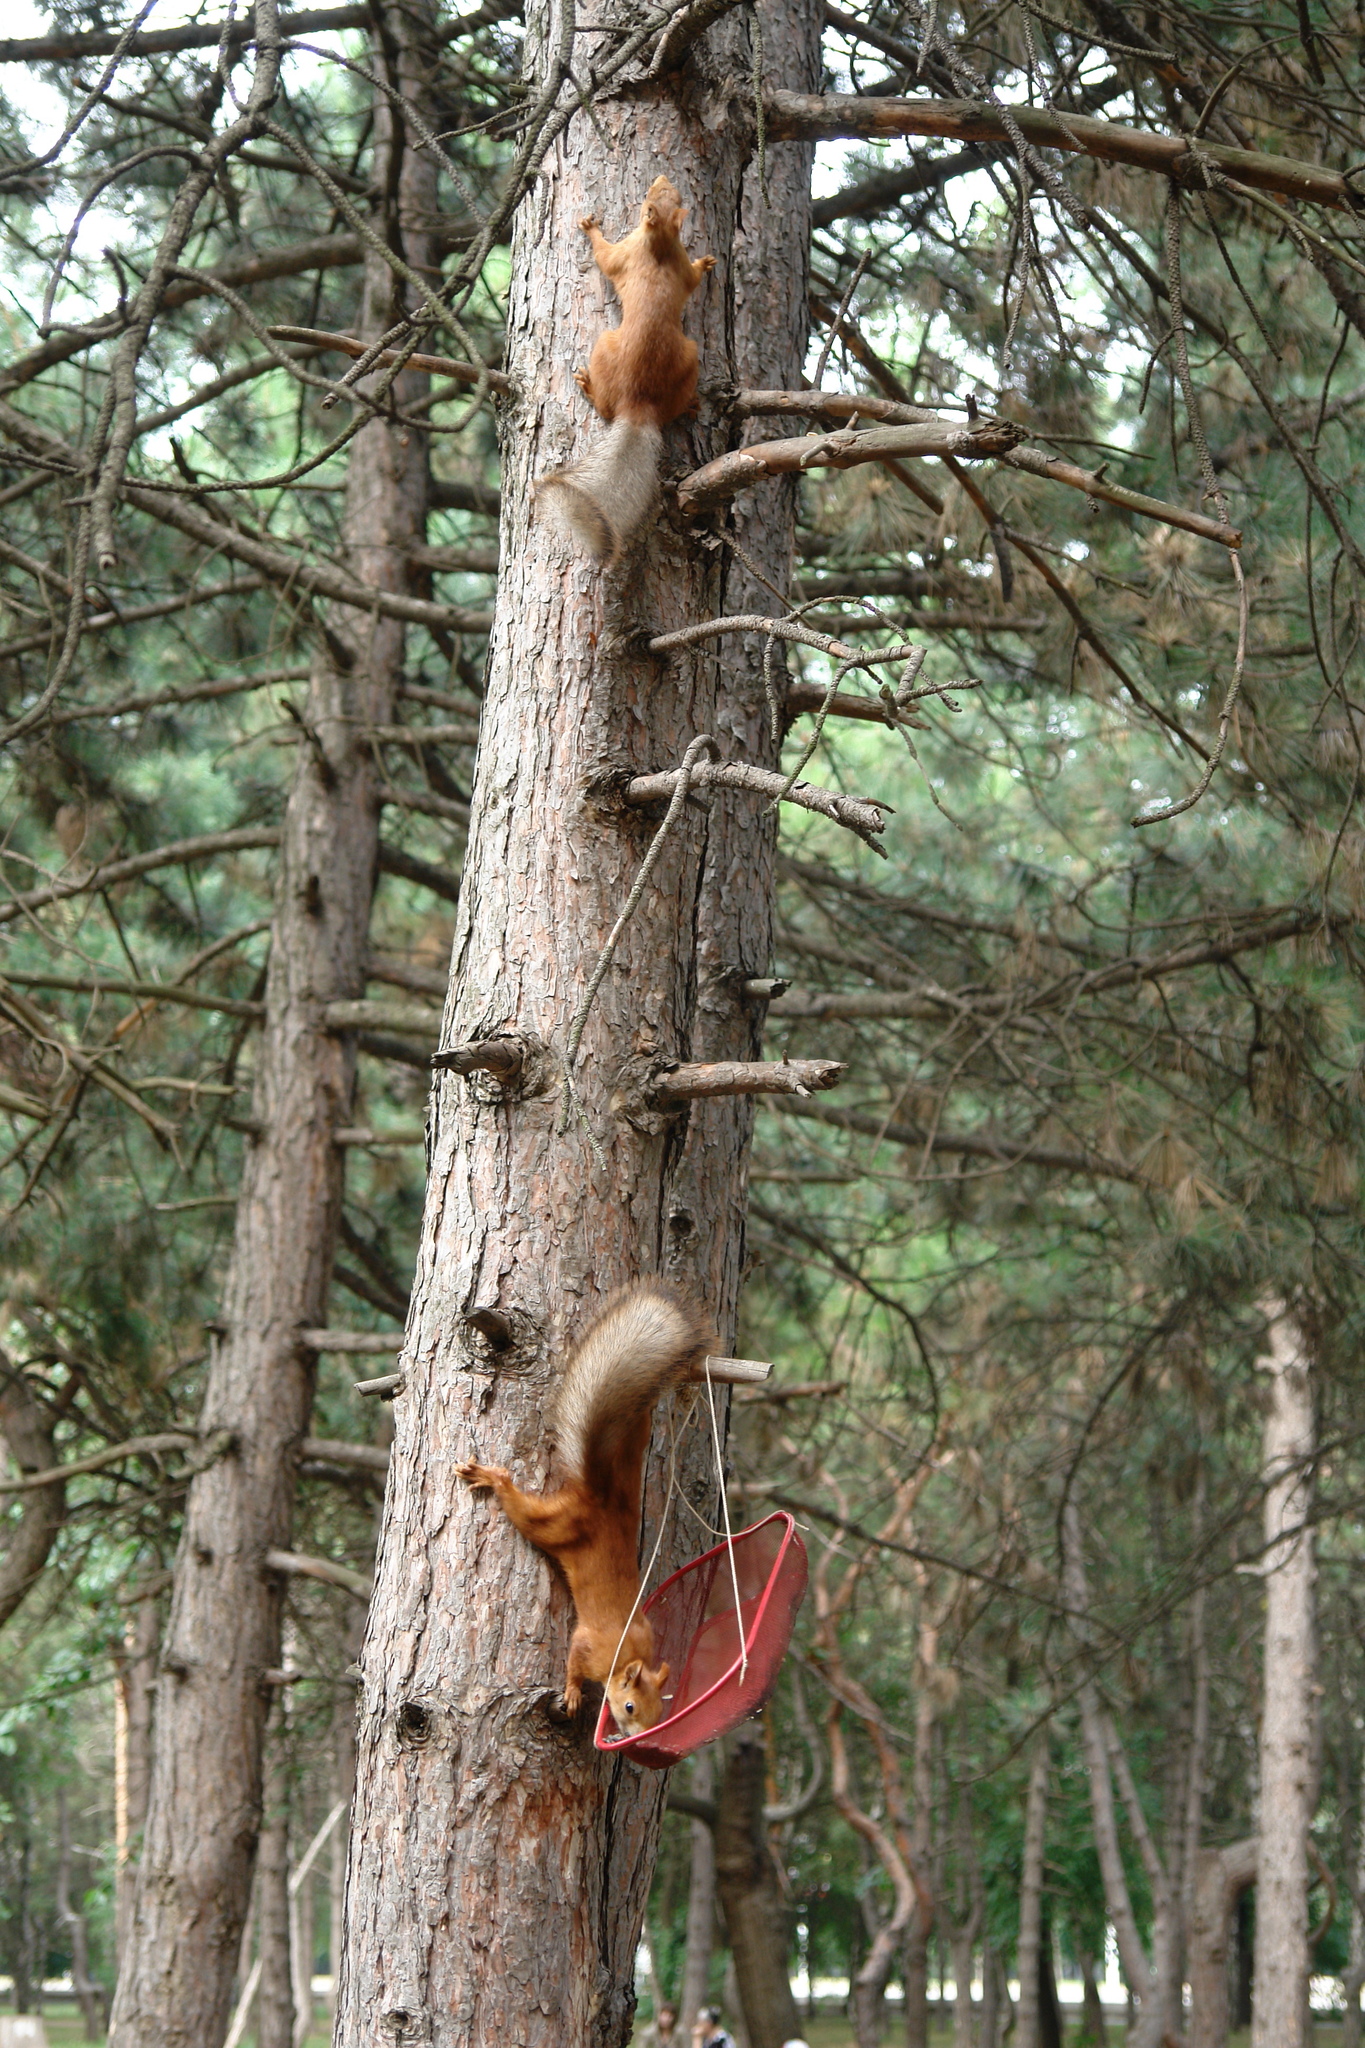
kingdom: Animalia
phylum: Chordata
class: Mammalia
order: Rodentia
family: Sciuridae
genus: Sciurus
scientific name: Sciurus vulgaris
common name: Eurasian red squirrel
